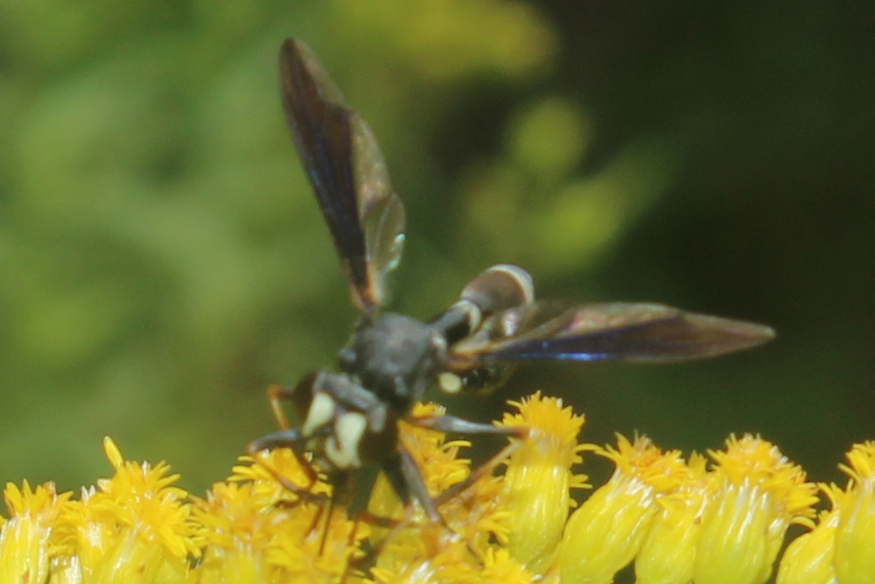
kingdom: Animalia
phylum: Arthropoda
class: Insecta
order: Diptera
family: Conopidae
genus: Physocephala
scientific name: Physocephala tibialis
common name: Common eastern physocephala
